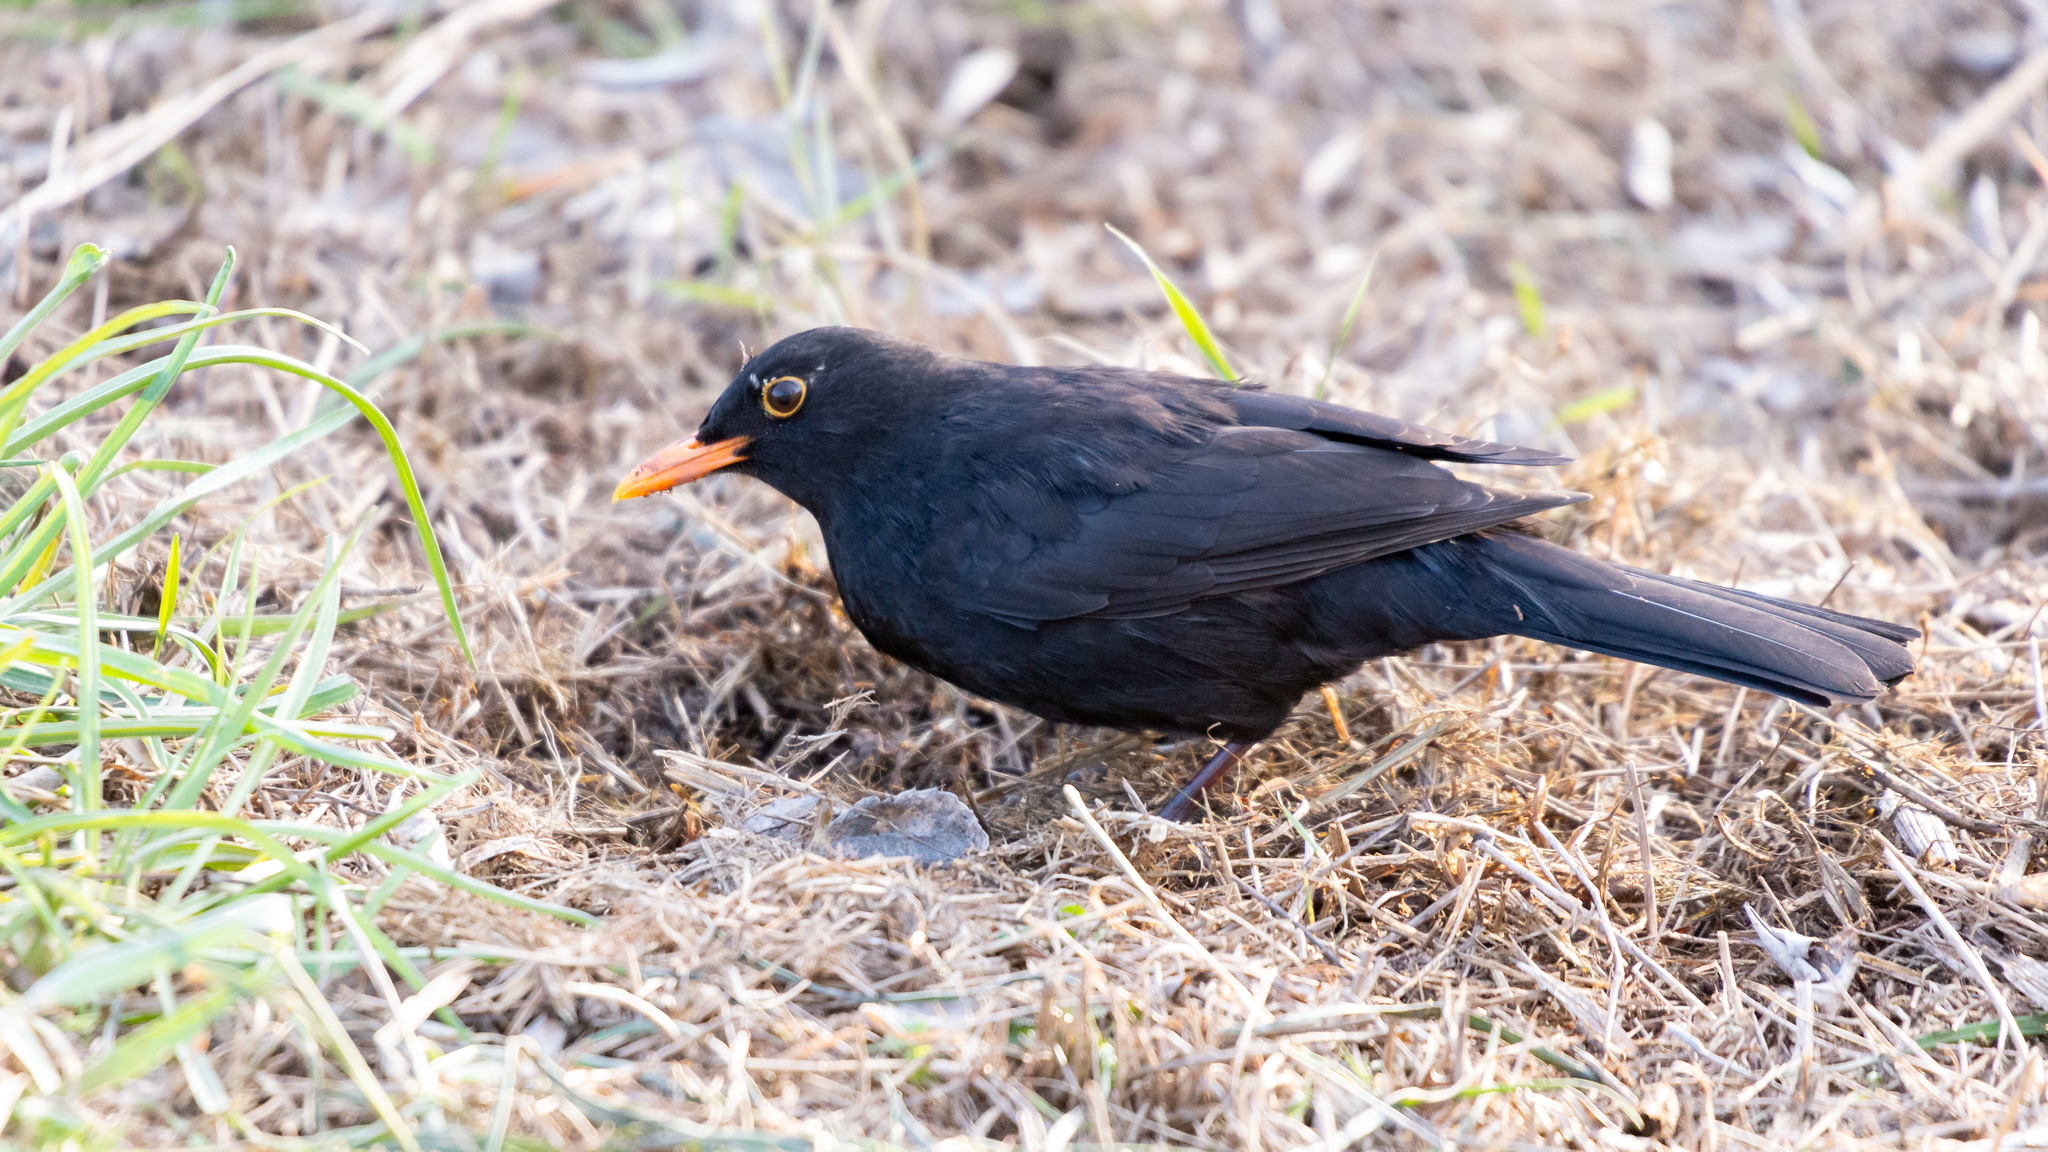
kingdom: Animalia
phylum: Chordata
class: Aves
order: Passeriformes
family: Turdidae
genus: Turdus
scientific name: Turdus merula
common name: Common blackbird
